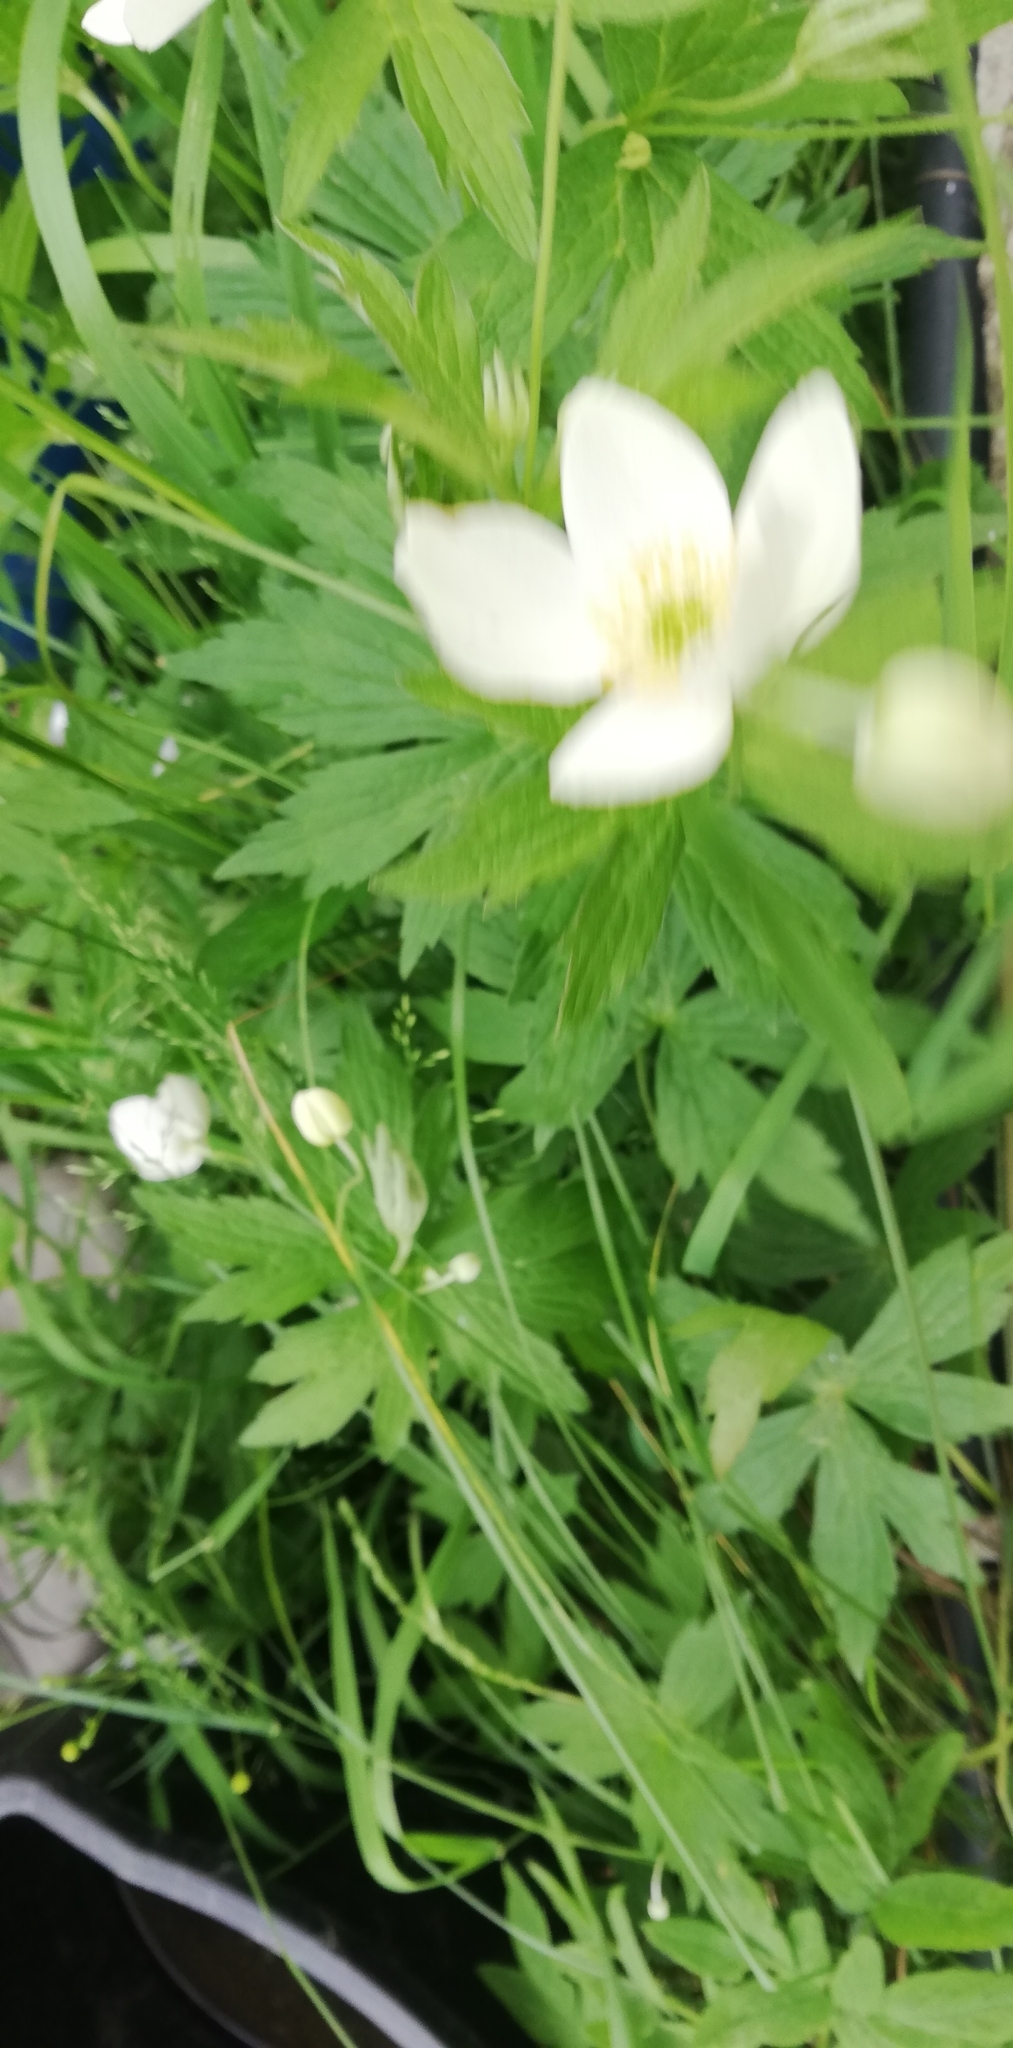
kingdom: Plantae
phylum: Tracheophyta
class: Magnoliopsida
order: Ranunculales
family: Ranunculaceae
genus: Anemonastrum
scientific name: Anemonastrum canadense
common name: Canada anemone
